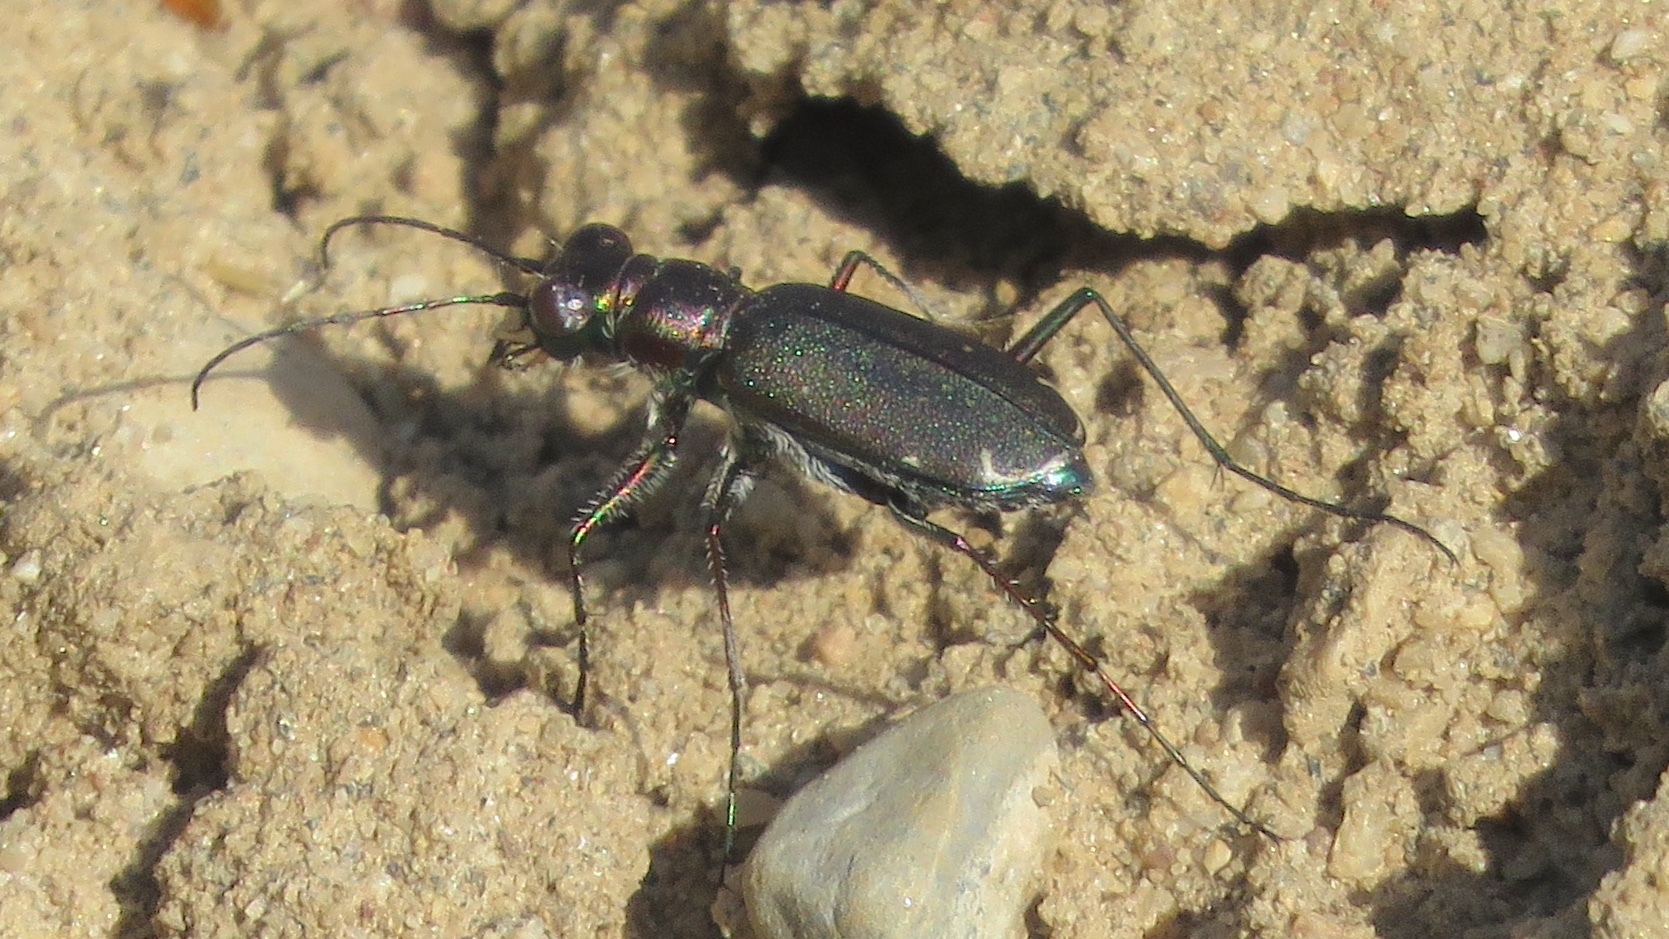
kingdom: Animalia
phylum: Arthropoda
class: Insecta
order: Coleoptera
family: Carabidae
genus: Cicindela
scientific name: Cicindela punctulata
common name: Punctured tiger beetle
